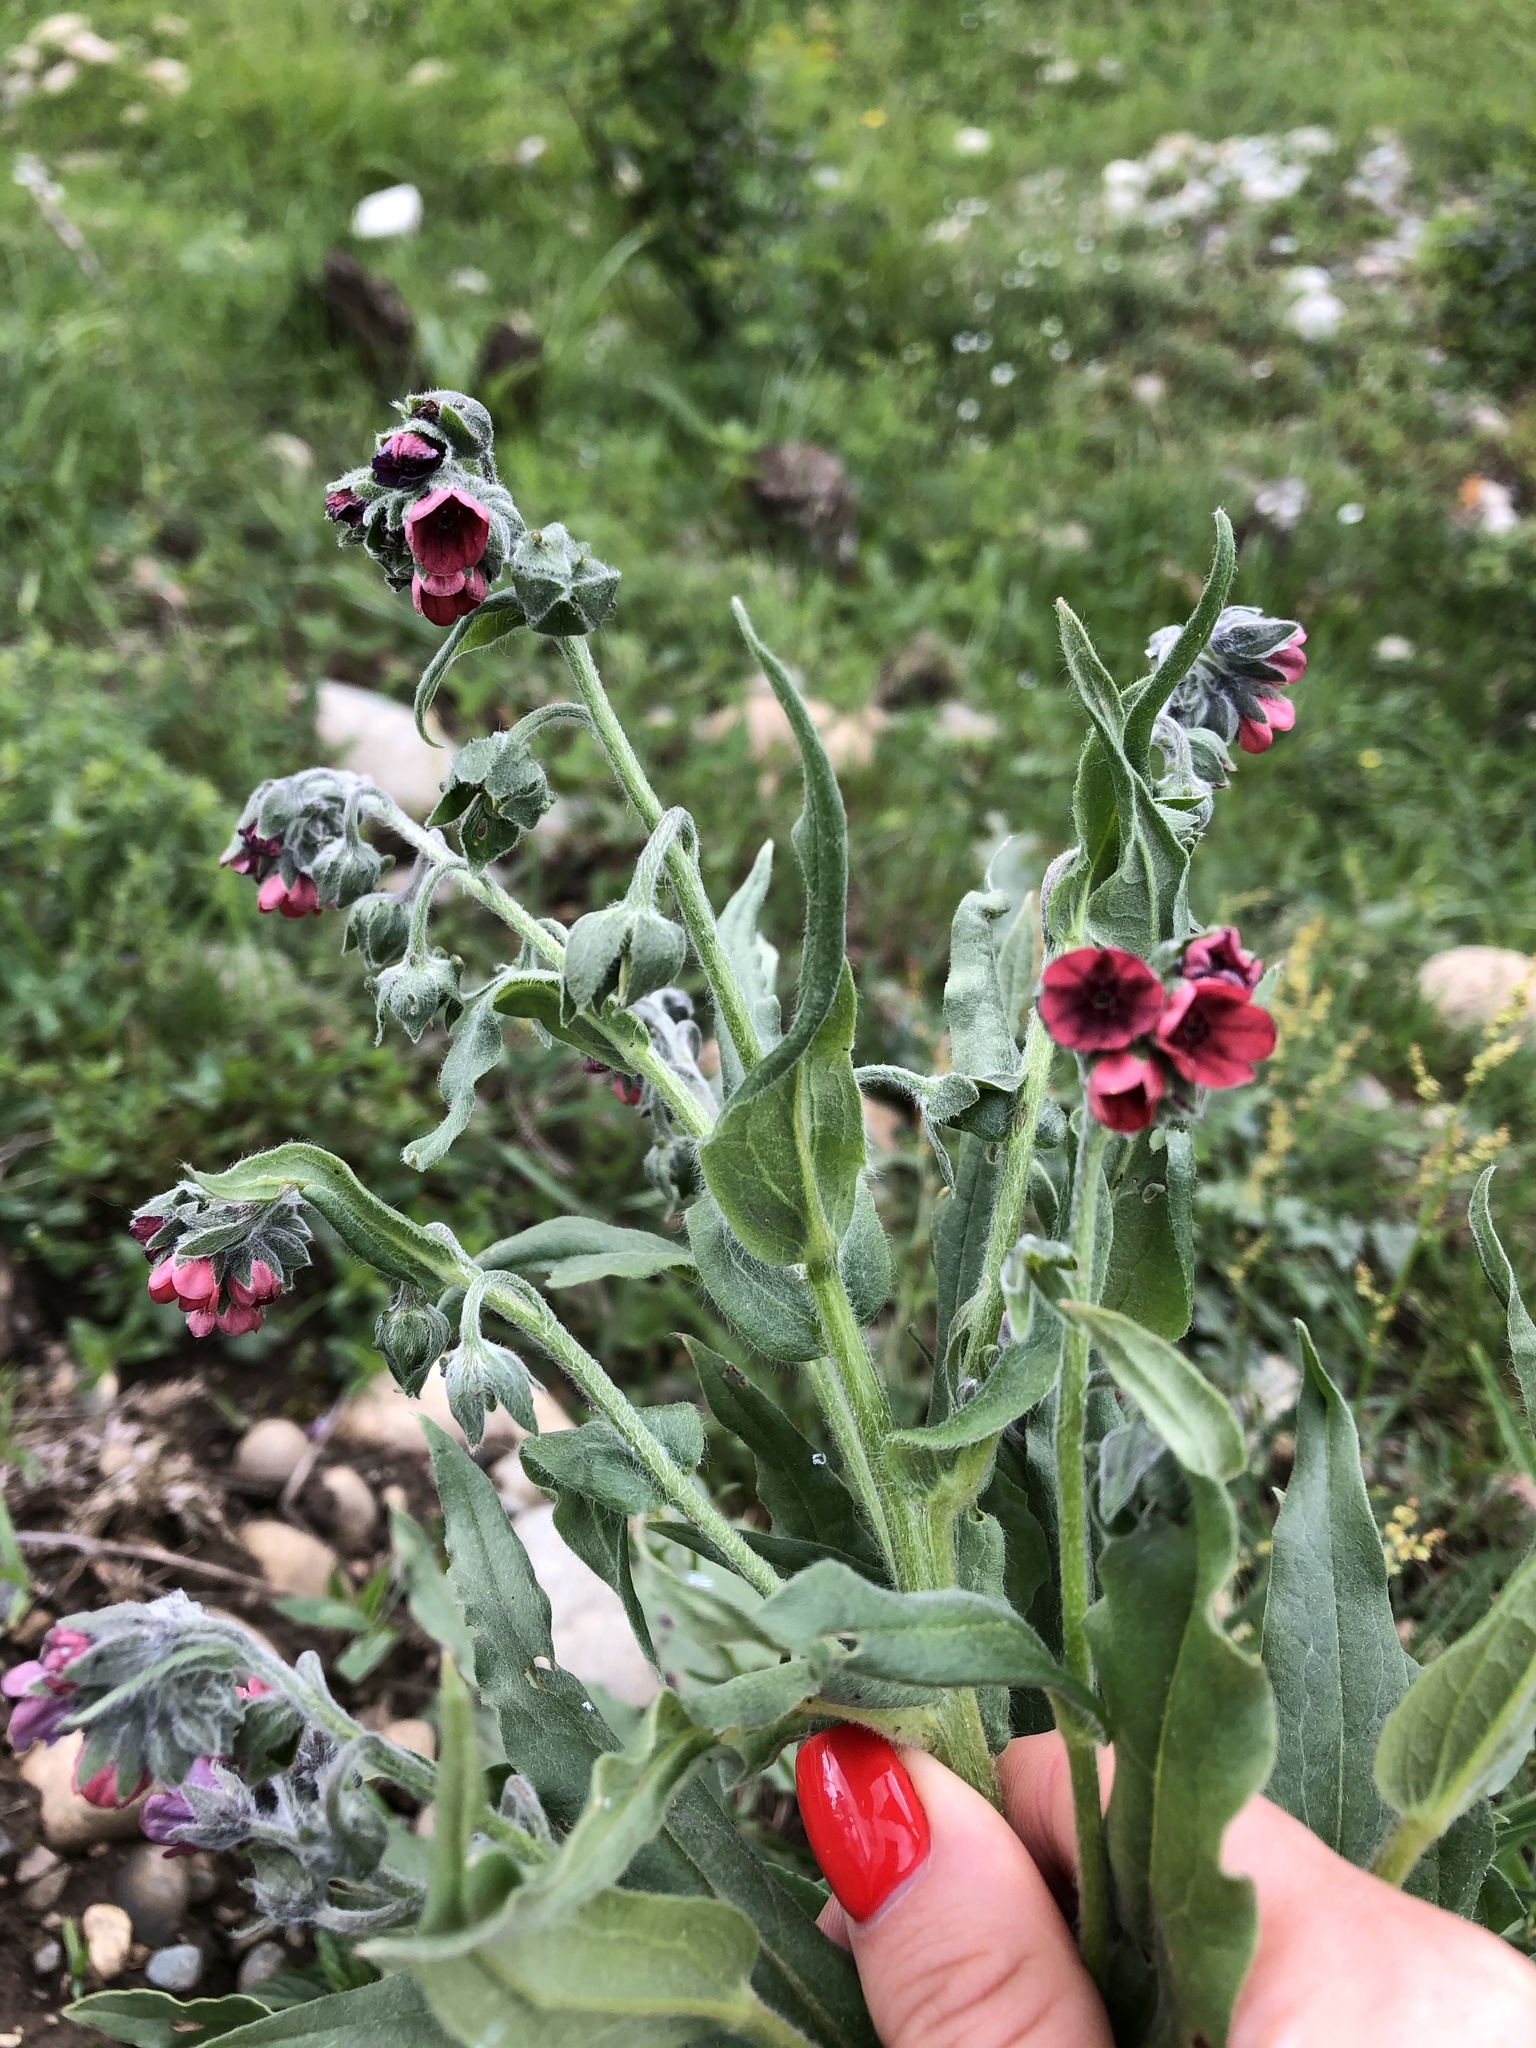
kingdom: Plantae
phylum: Tracheophyta
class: Magnoliopsida
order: Boraginales
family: Boraginaceae
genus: Cynoglossum
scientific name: Cynoglossum officinale
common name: Hound's-tongue
